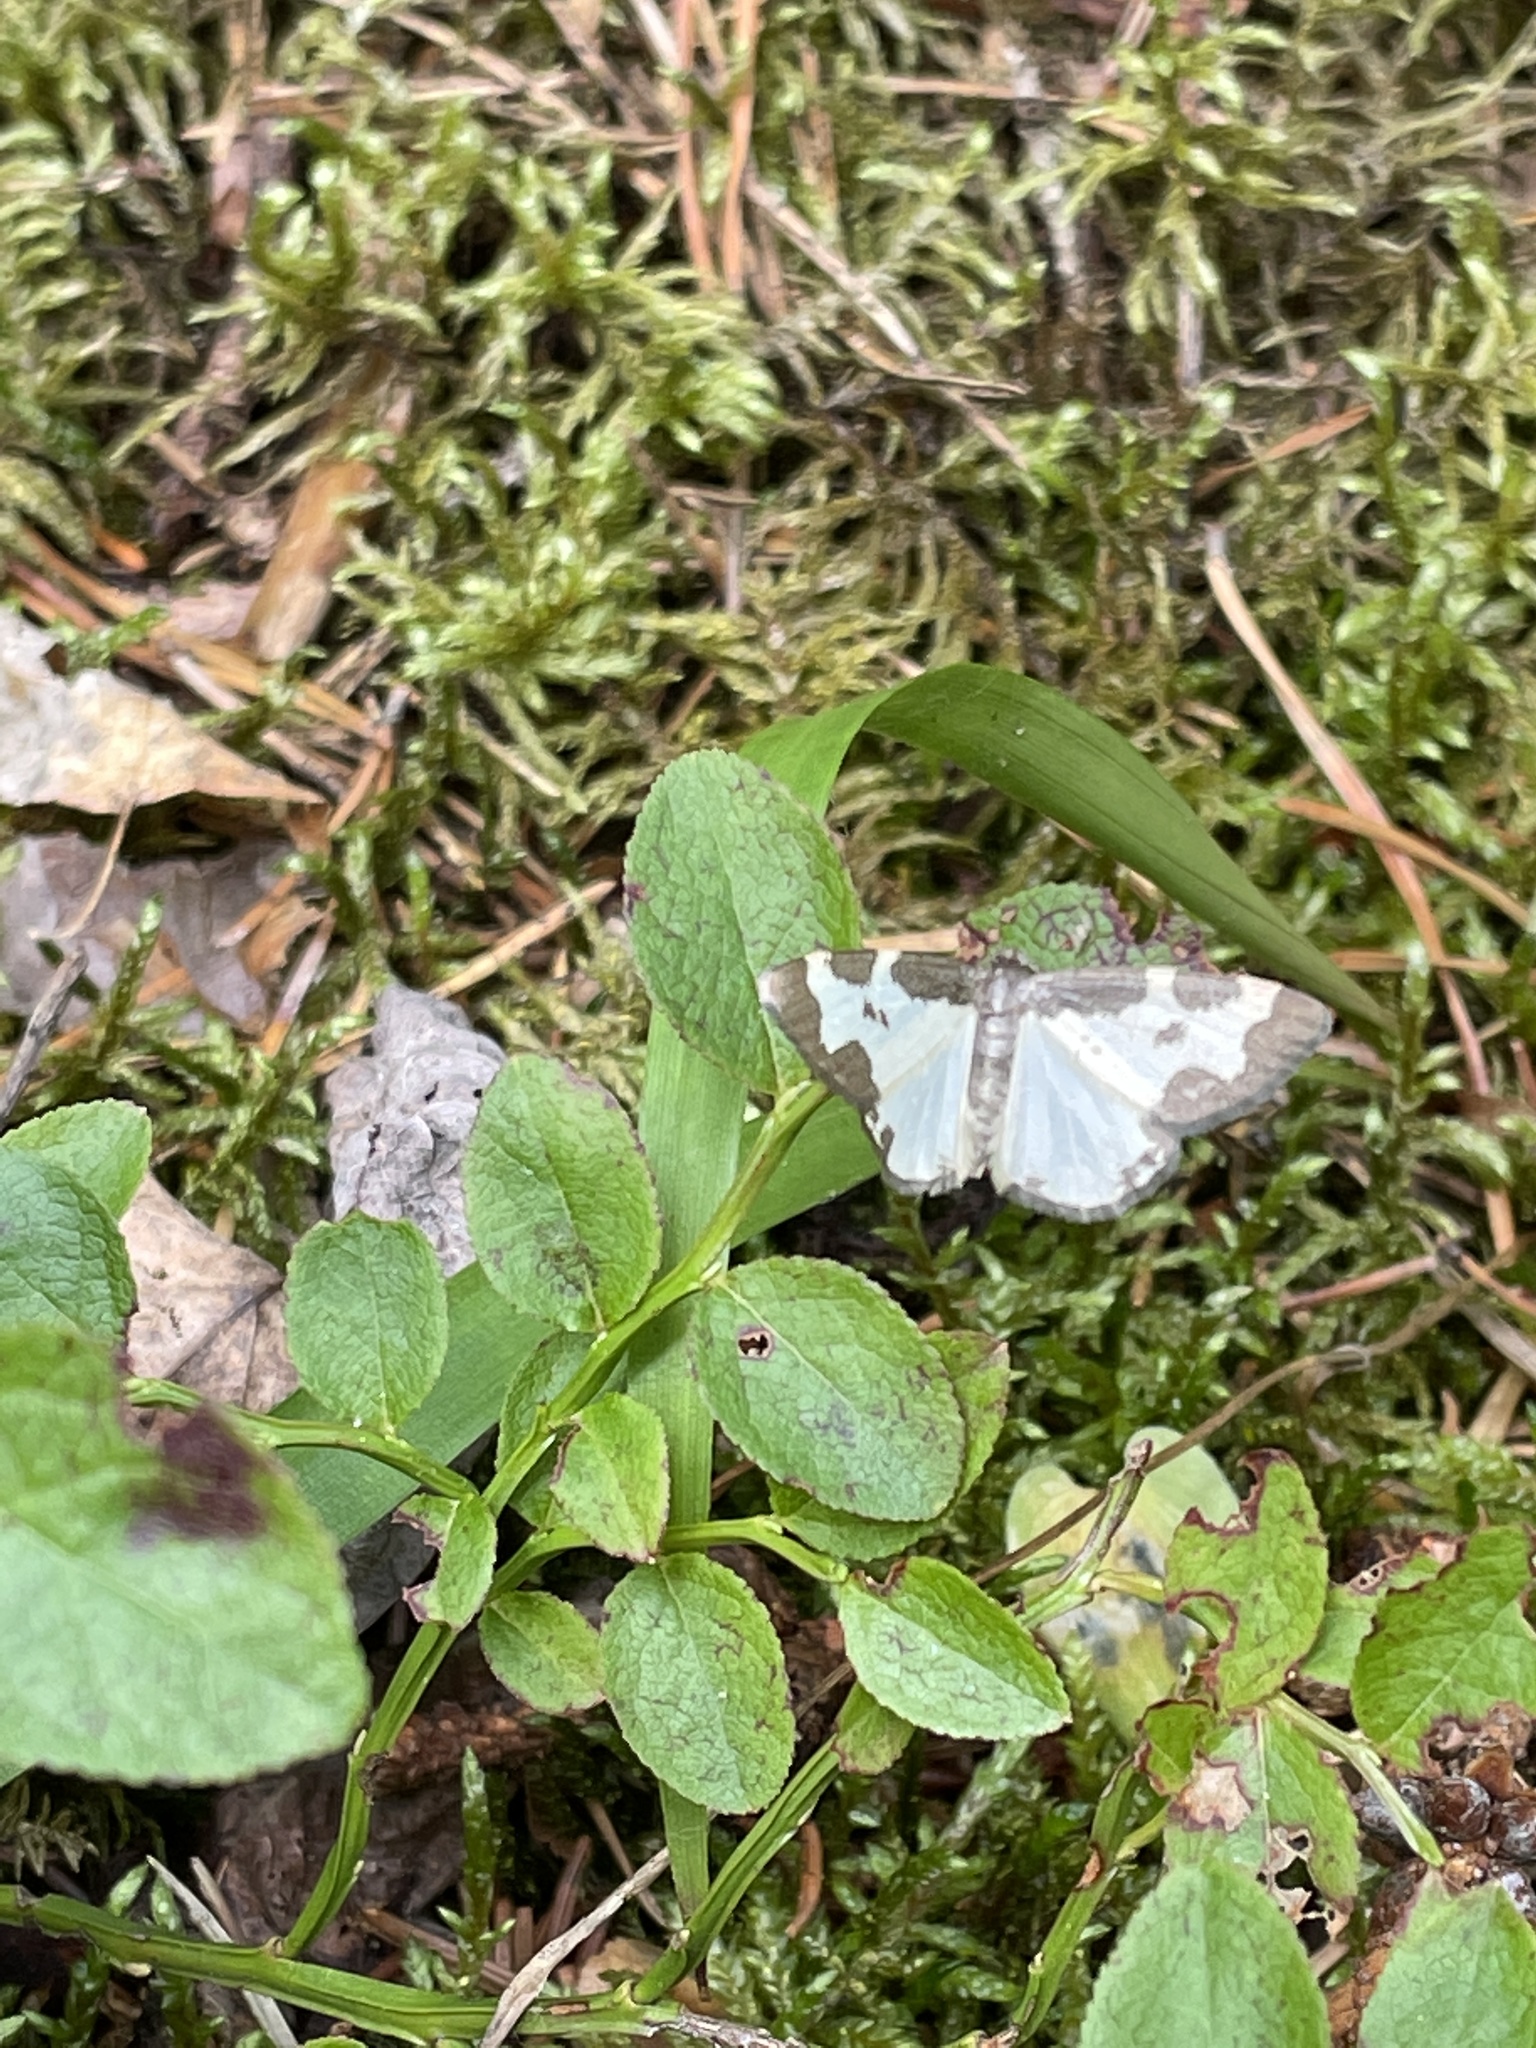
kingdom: Animalia
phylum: Arthropoda
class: Insecta
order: Lepidoptera
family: Geometridae
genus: Lomaspilis
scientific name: Lomaspilis marginata
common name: Clouded border
